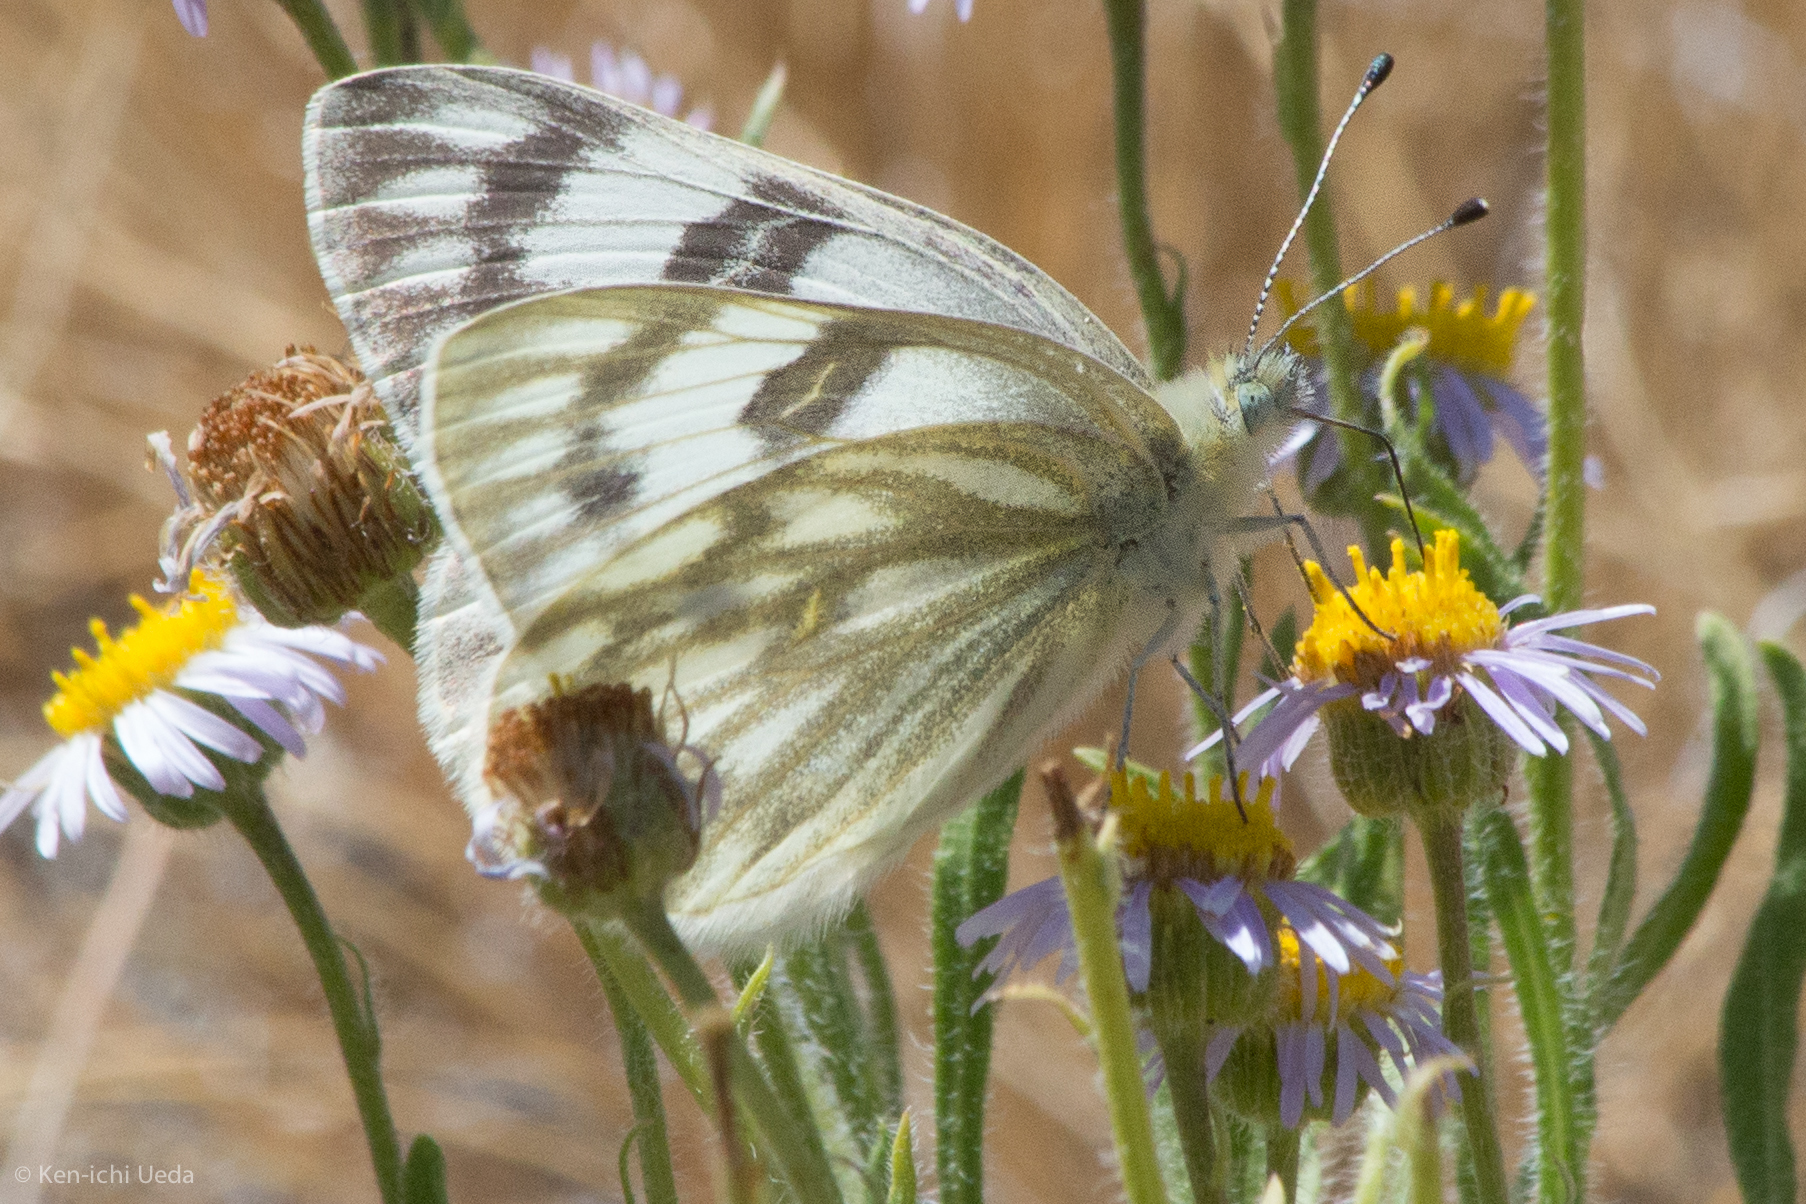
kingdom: Animalia
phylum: Arthropoda
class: Insecta
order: Lepidoptera
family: Pieridae
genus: Pontia
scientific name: Pontia occidentalis
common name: Western white
